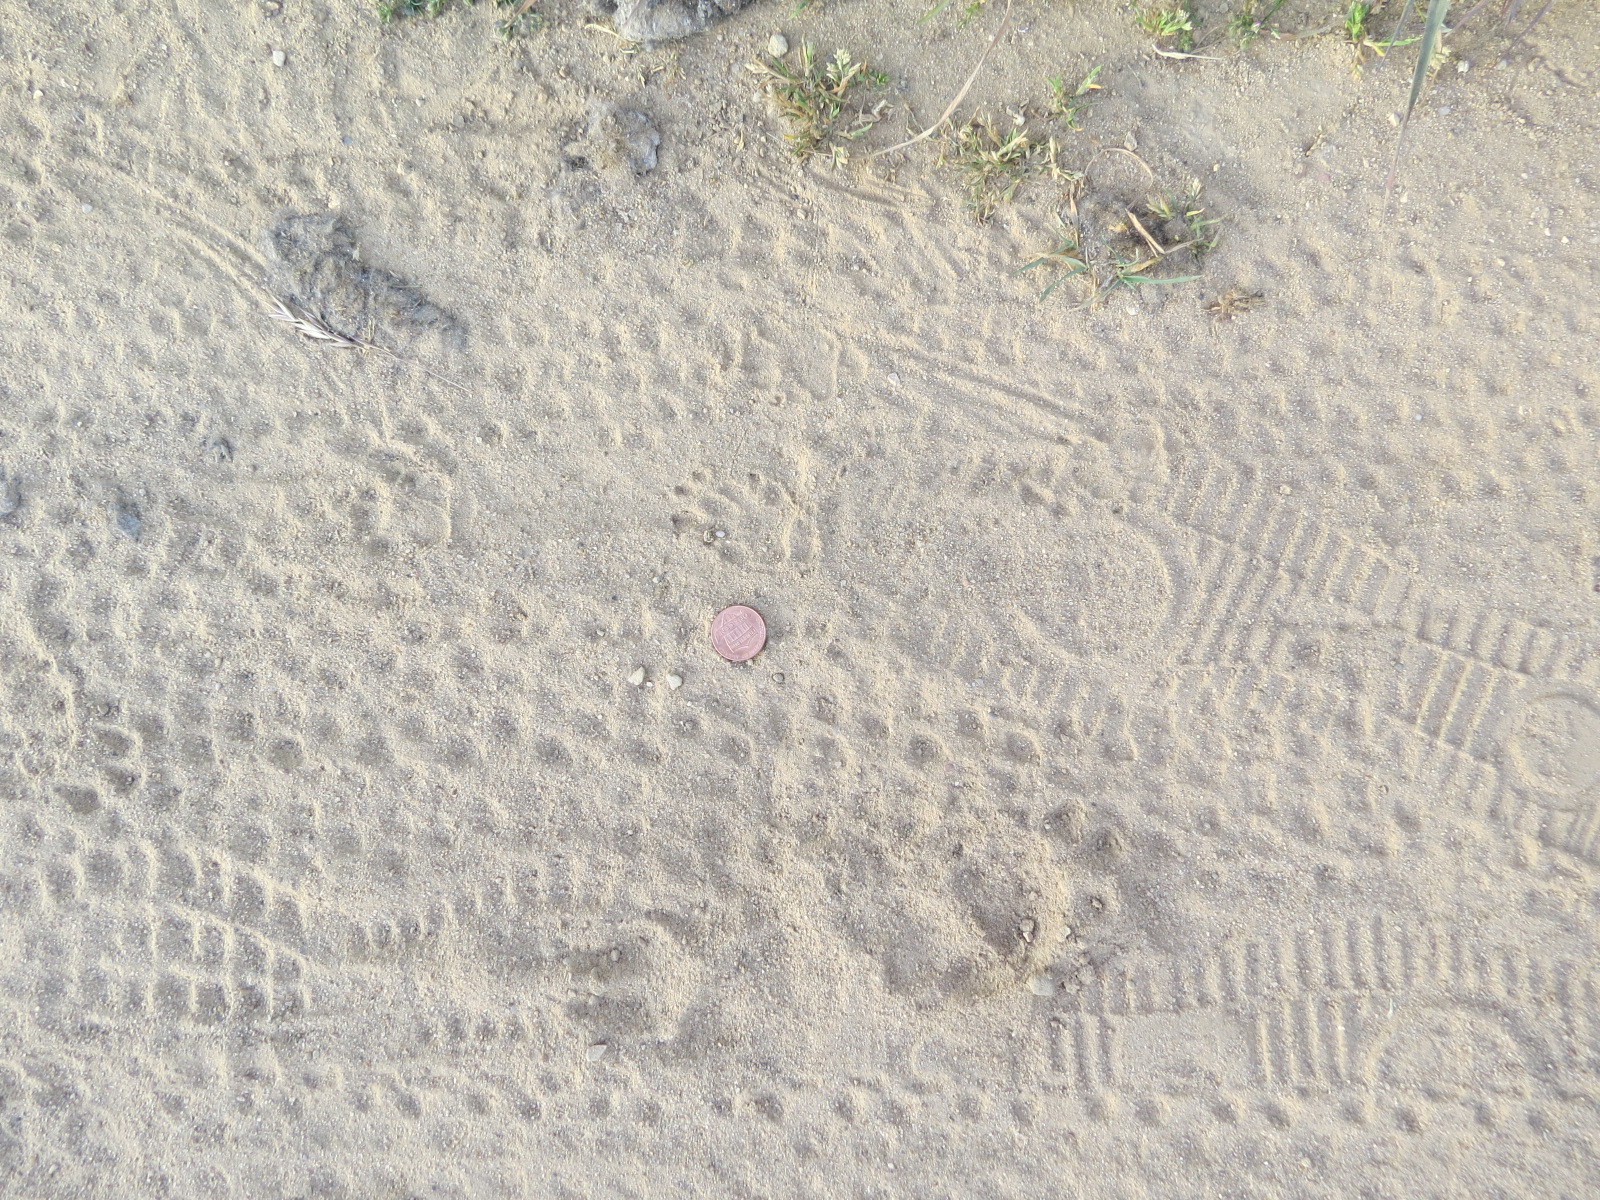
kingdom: Animalia
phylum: Chordata
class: Mammalia
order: Carnivora
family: Mephitidae
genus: Mephitis
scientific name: Mephitis mephitis
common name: Striped skunk
